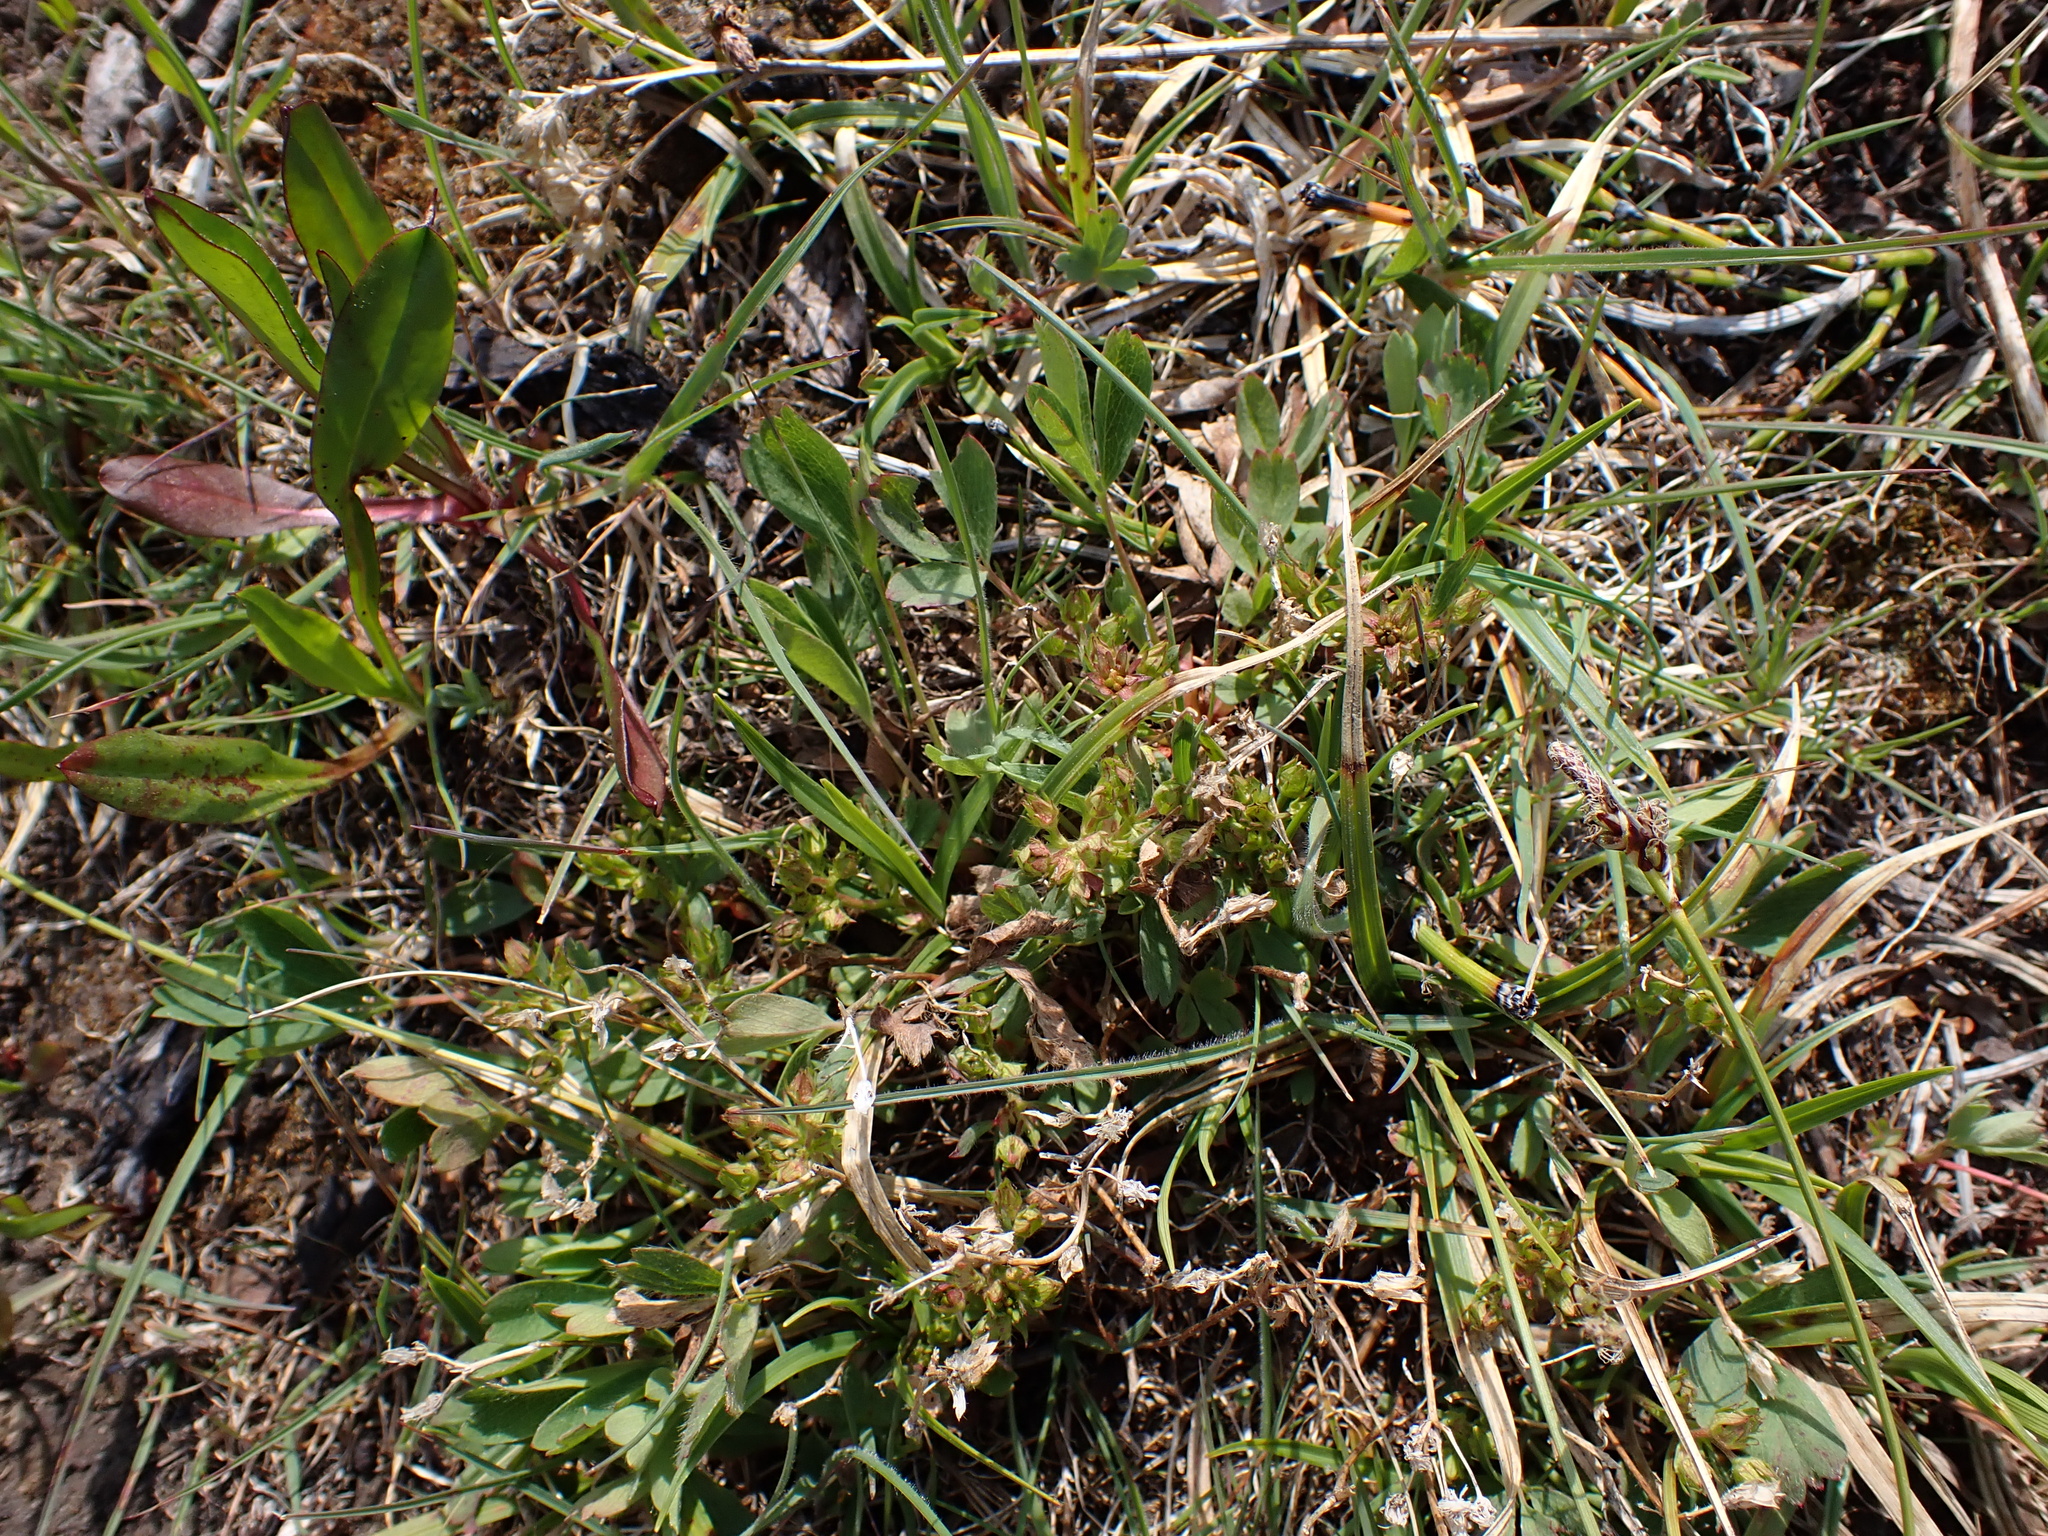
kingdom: Plantae
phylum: Tracheophyta
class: Magnoliopsida
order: Rosales
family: Rosaceae
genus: Sibbaldia
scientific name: Sibbaldia procumbens
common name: Creeping sibbaldia
